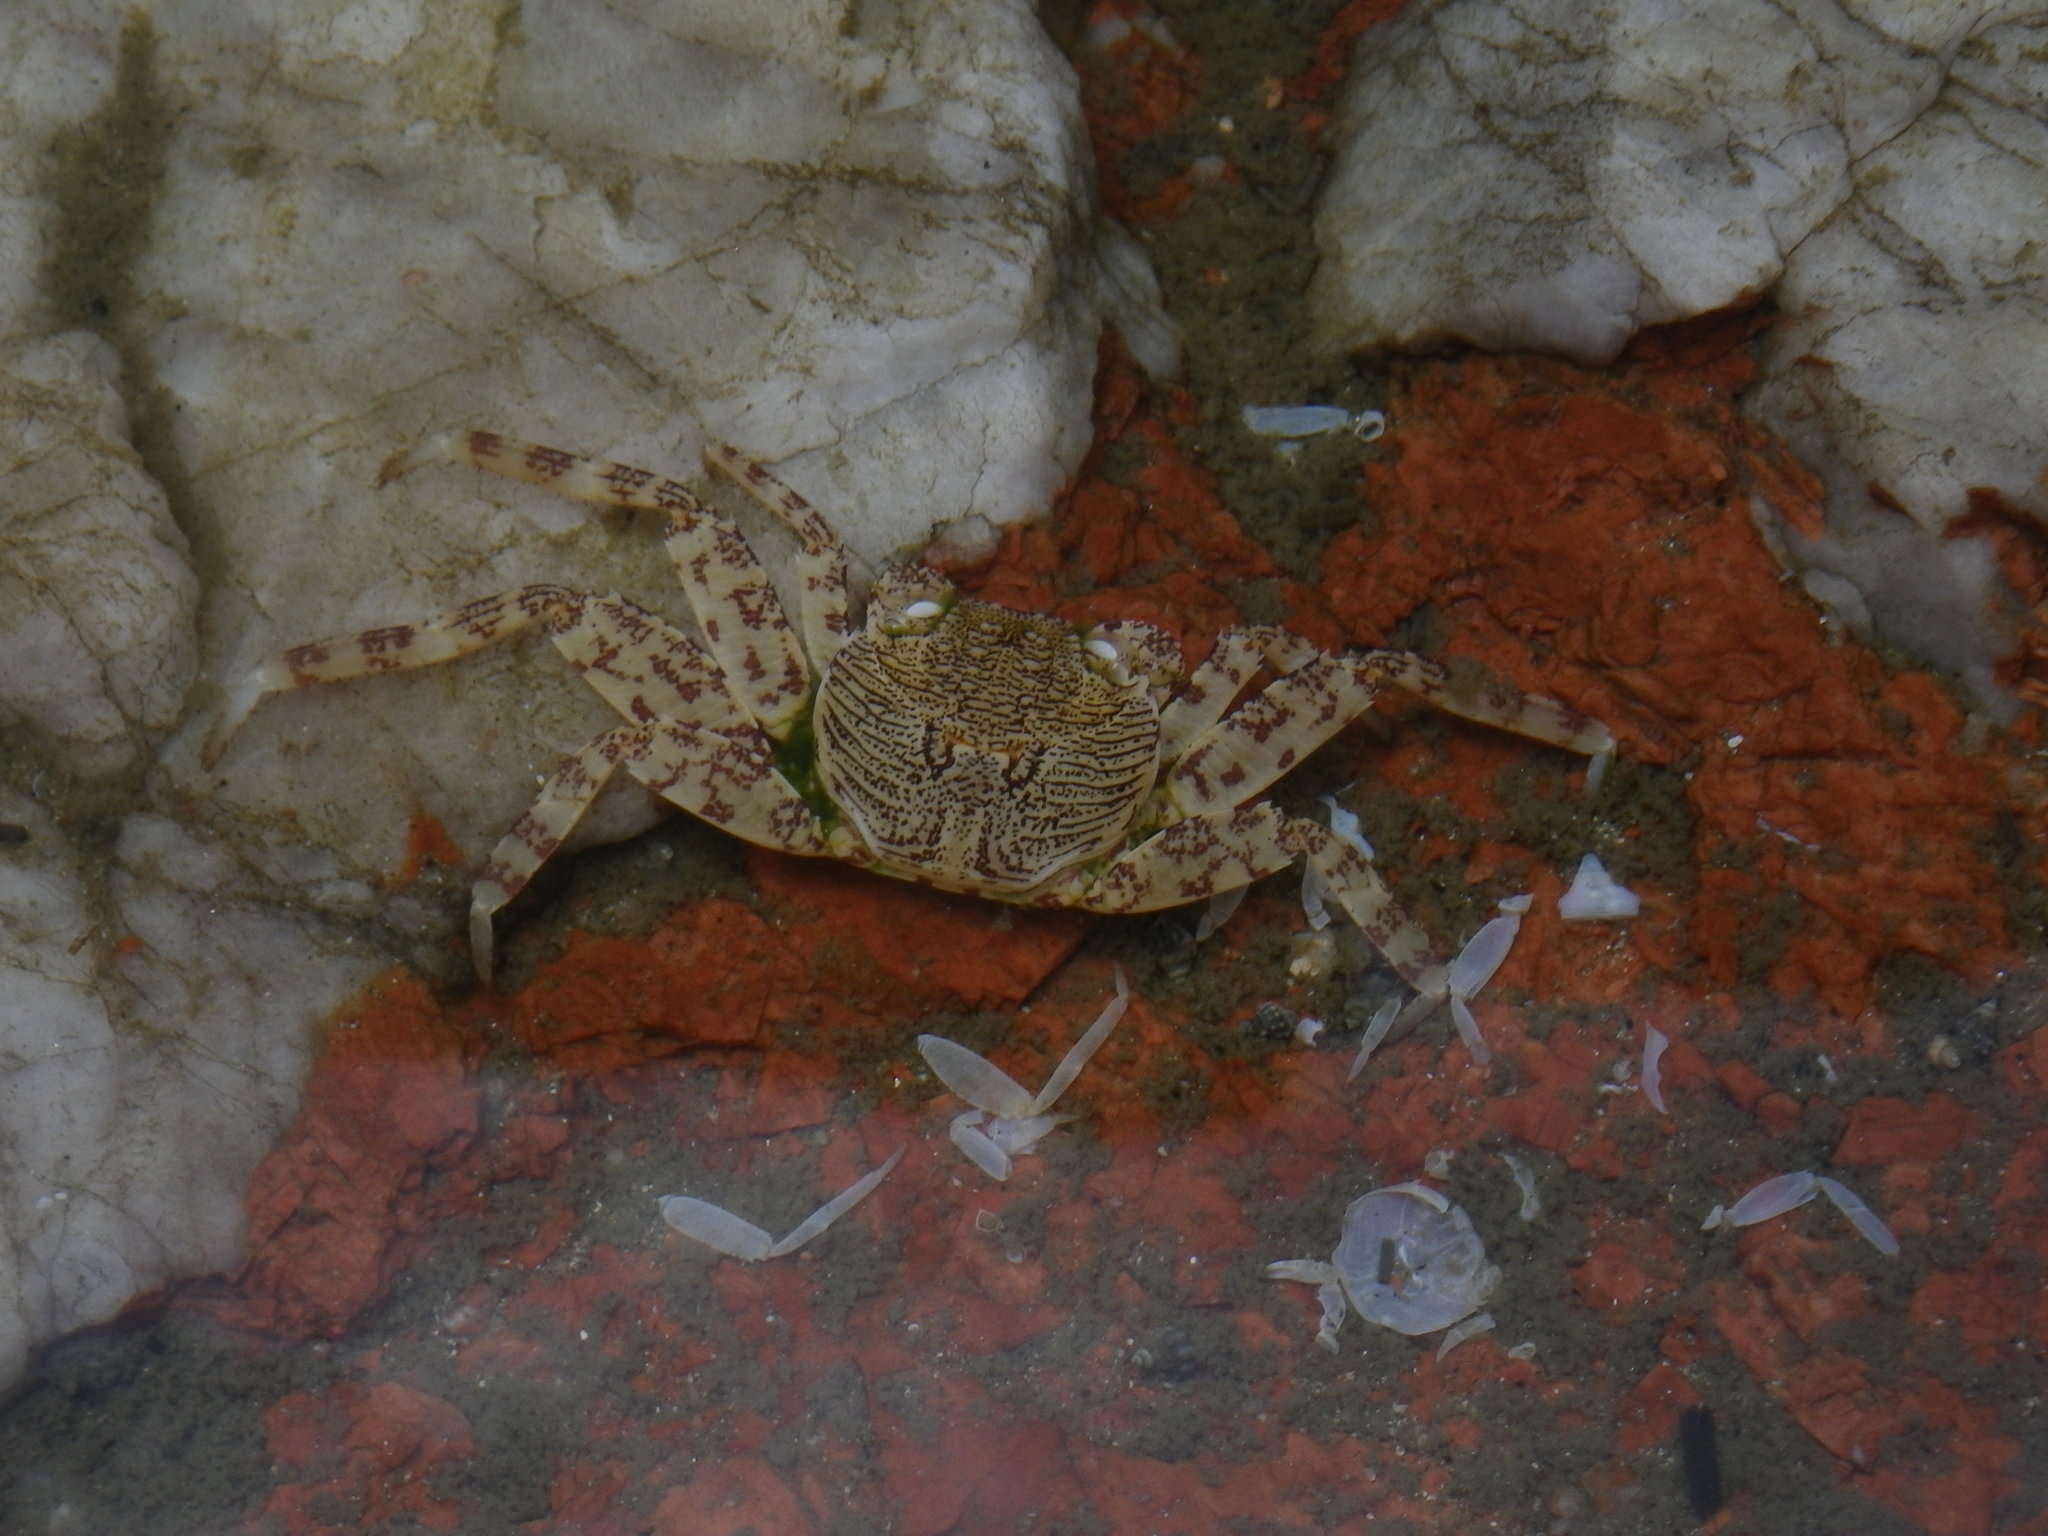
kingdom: Animalia
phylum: Arthropoda
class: Malacostraca
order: Decapoda
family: Grapsidae
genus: Grapsus
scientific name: Grapsus albolineatus
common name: Mottled lightfoot crab
